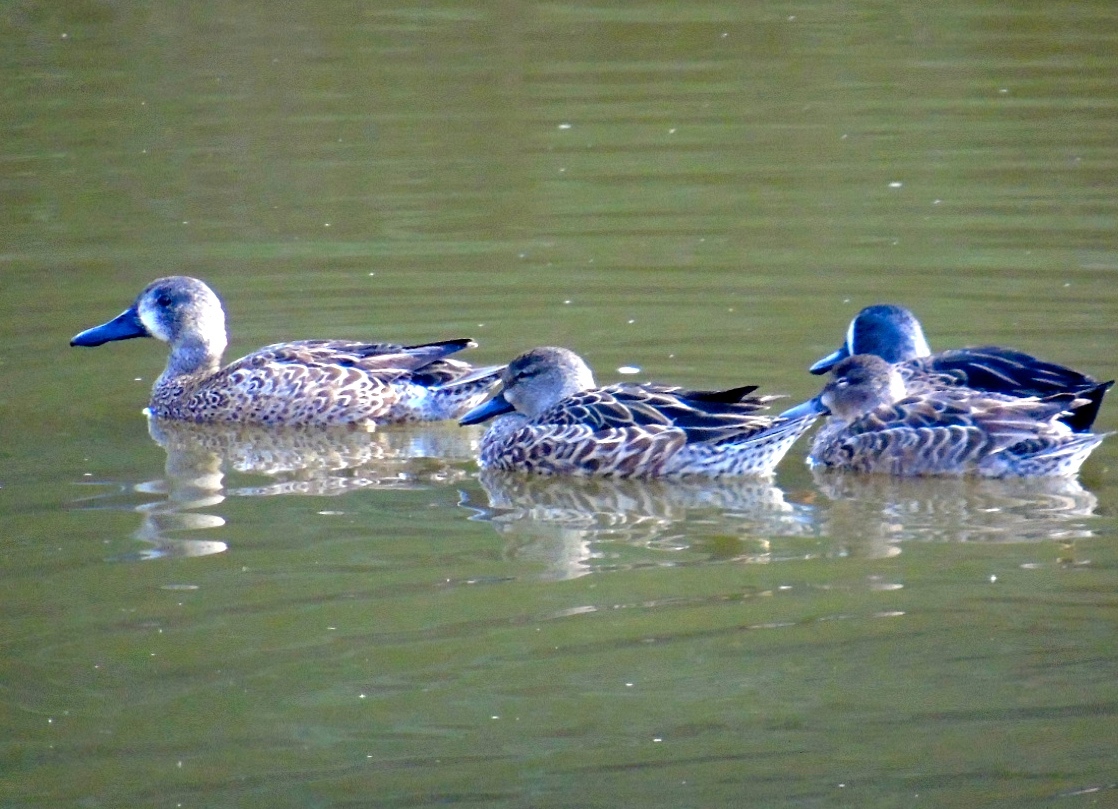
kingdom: Animalia
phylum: Chordata
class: Aves
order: Anseriformes
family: Anatidae
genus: Spatula
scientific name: Spatula discors
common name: Blue-winged teal
